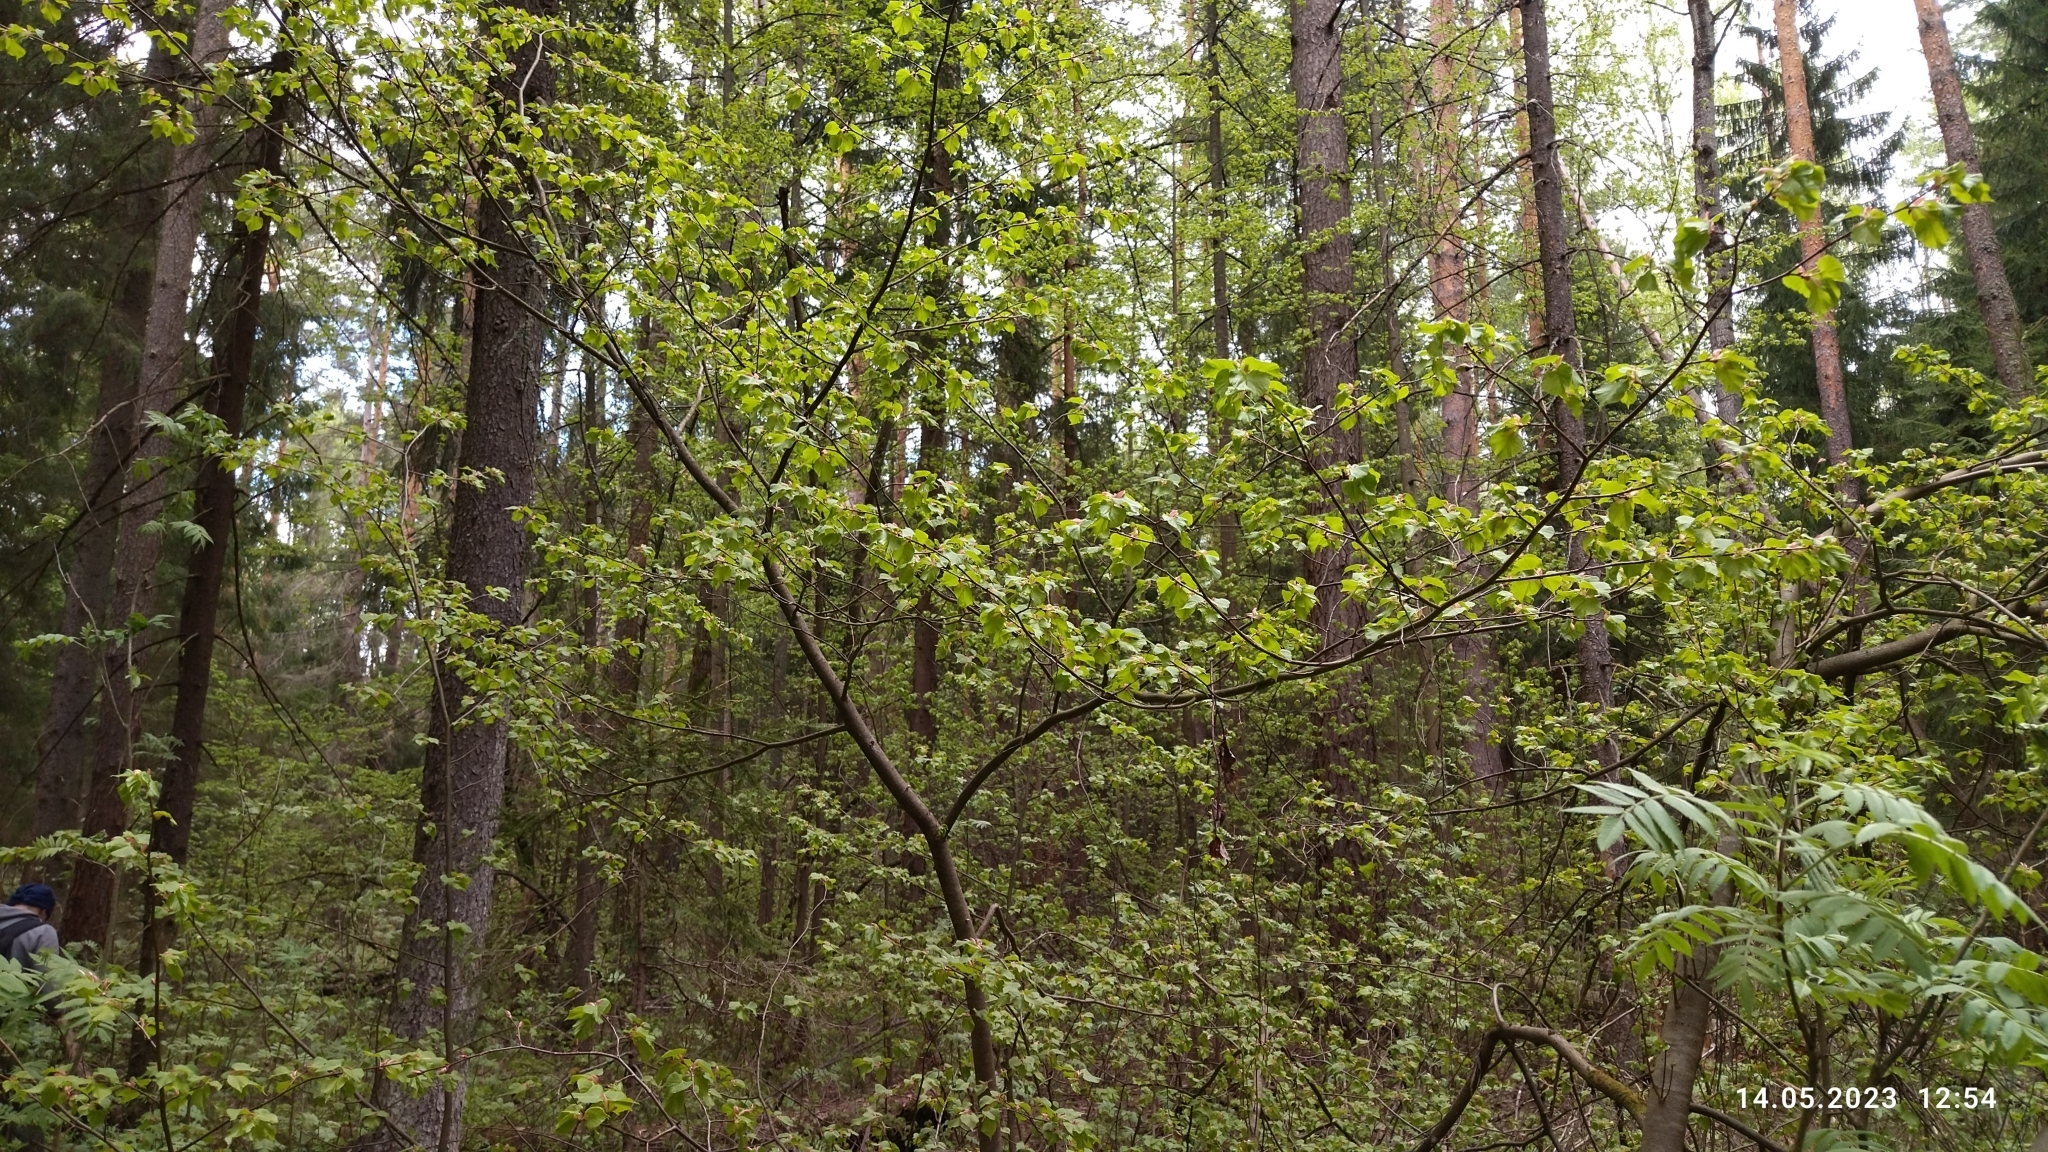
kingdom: Plantae
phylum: Tracheophyta
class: Magnoliopsida
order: Malvales
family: Malvaceae
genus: Tilia
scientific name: Tilia cordata
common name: Small-leaved lime
